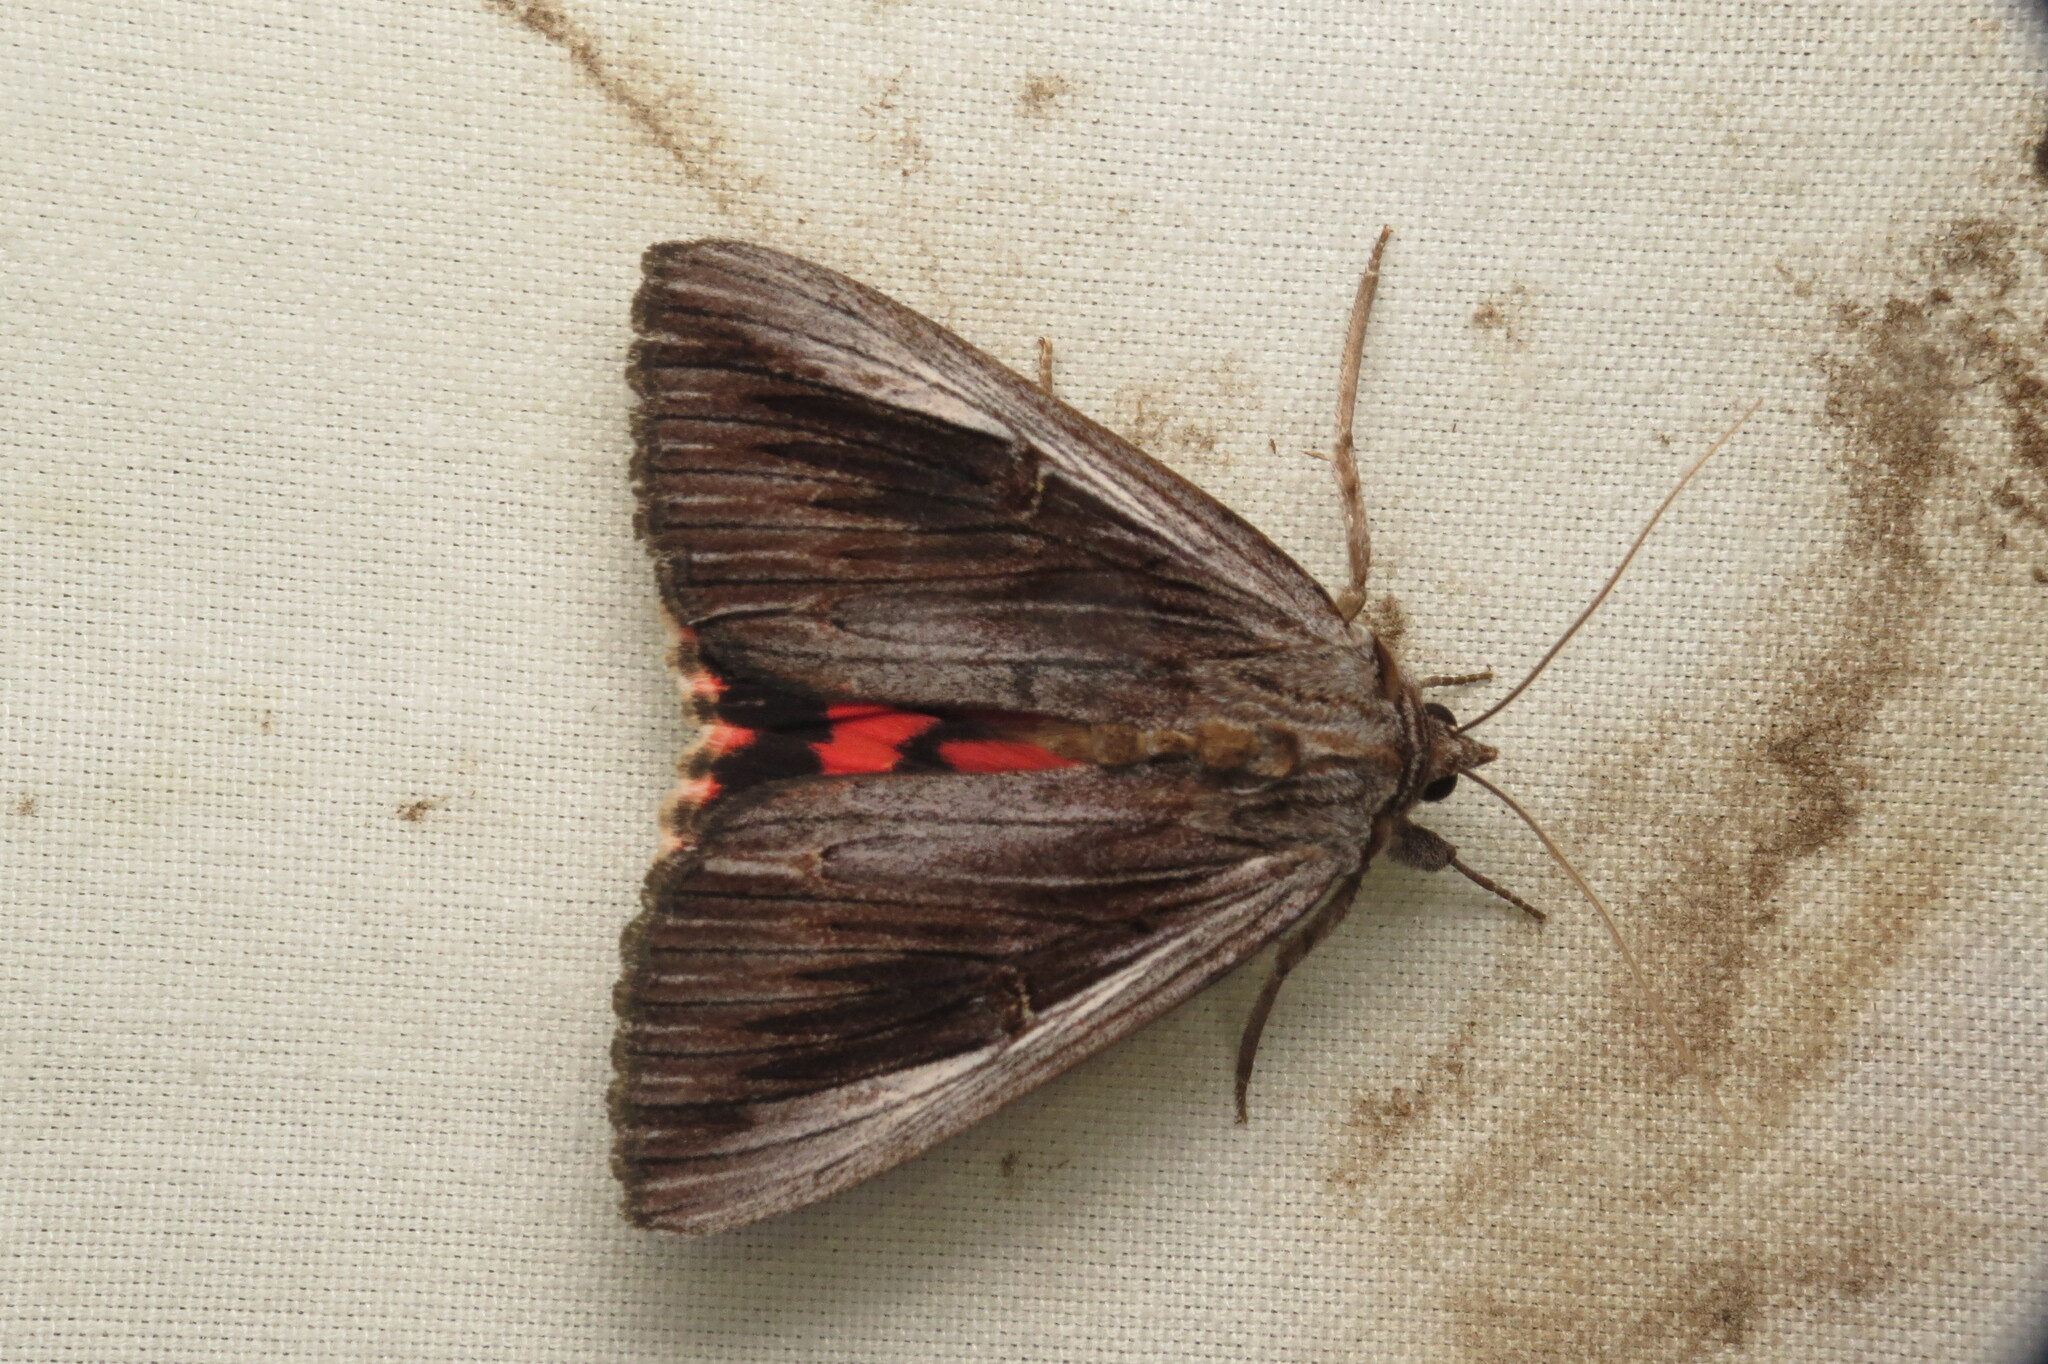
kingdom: Animalia
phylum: Arthropoda
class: Insecta
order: Lepidoptera
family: Erebidae
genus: Catocala
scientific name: Catocala herodias
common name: Pine barrens underwing
